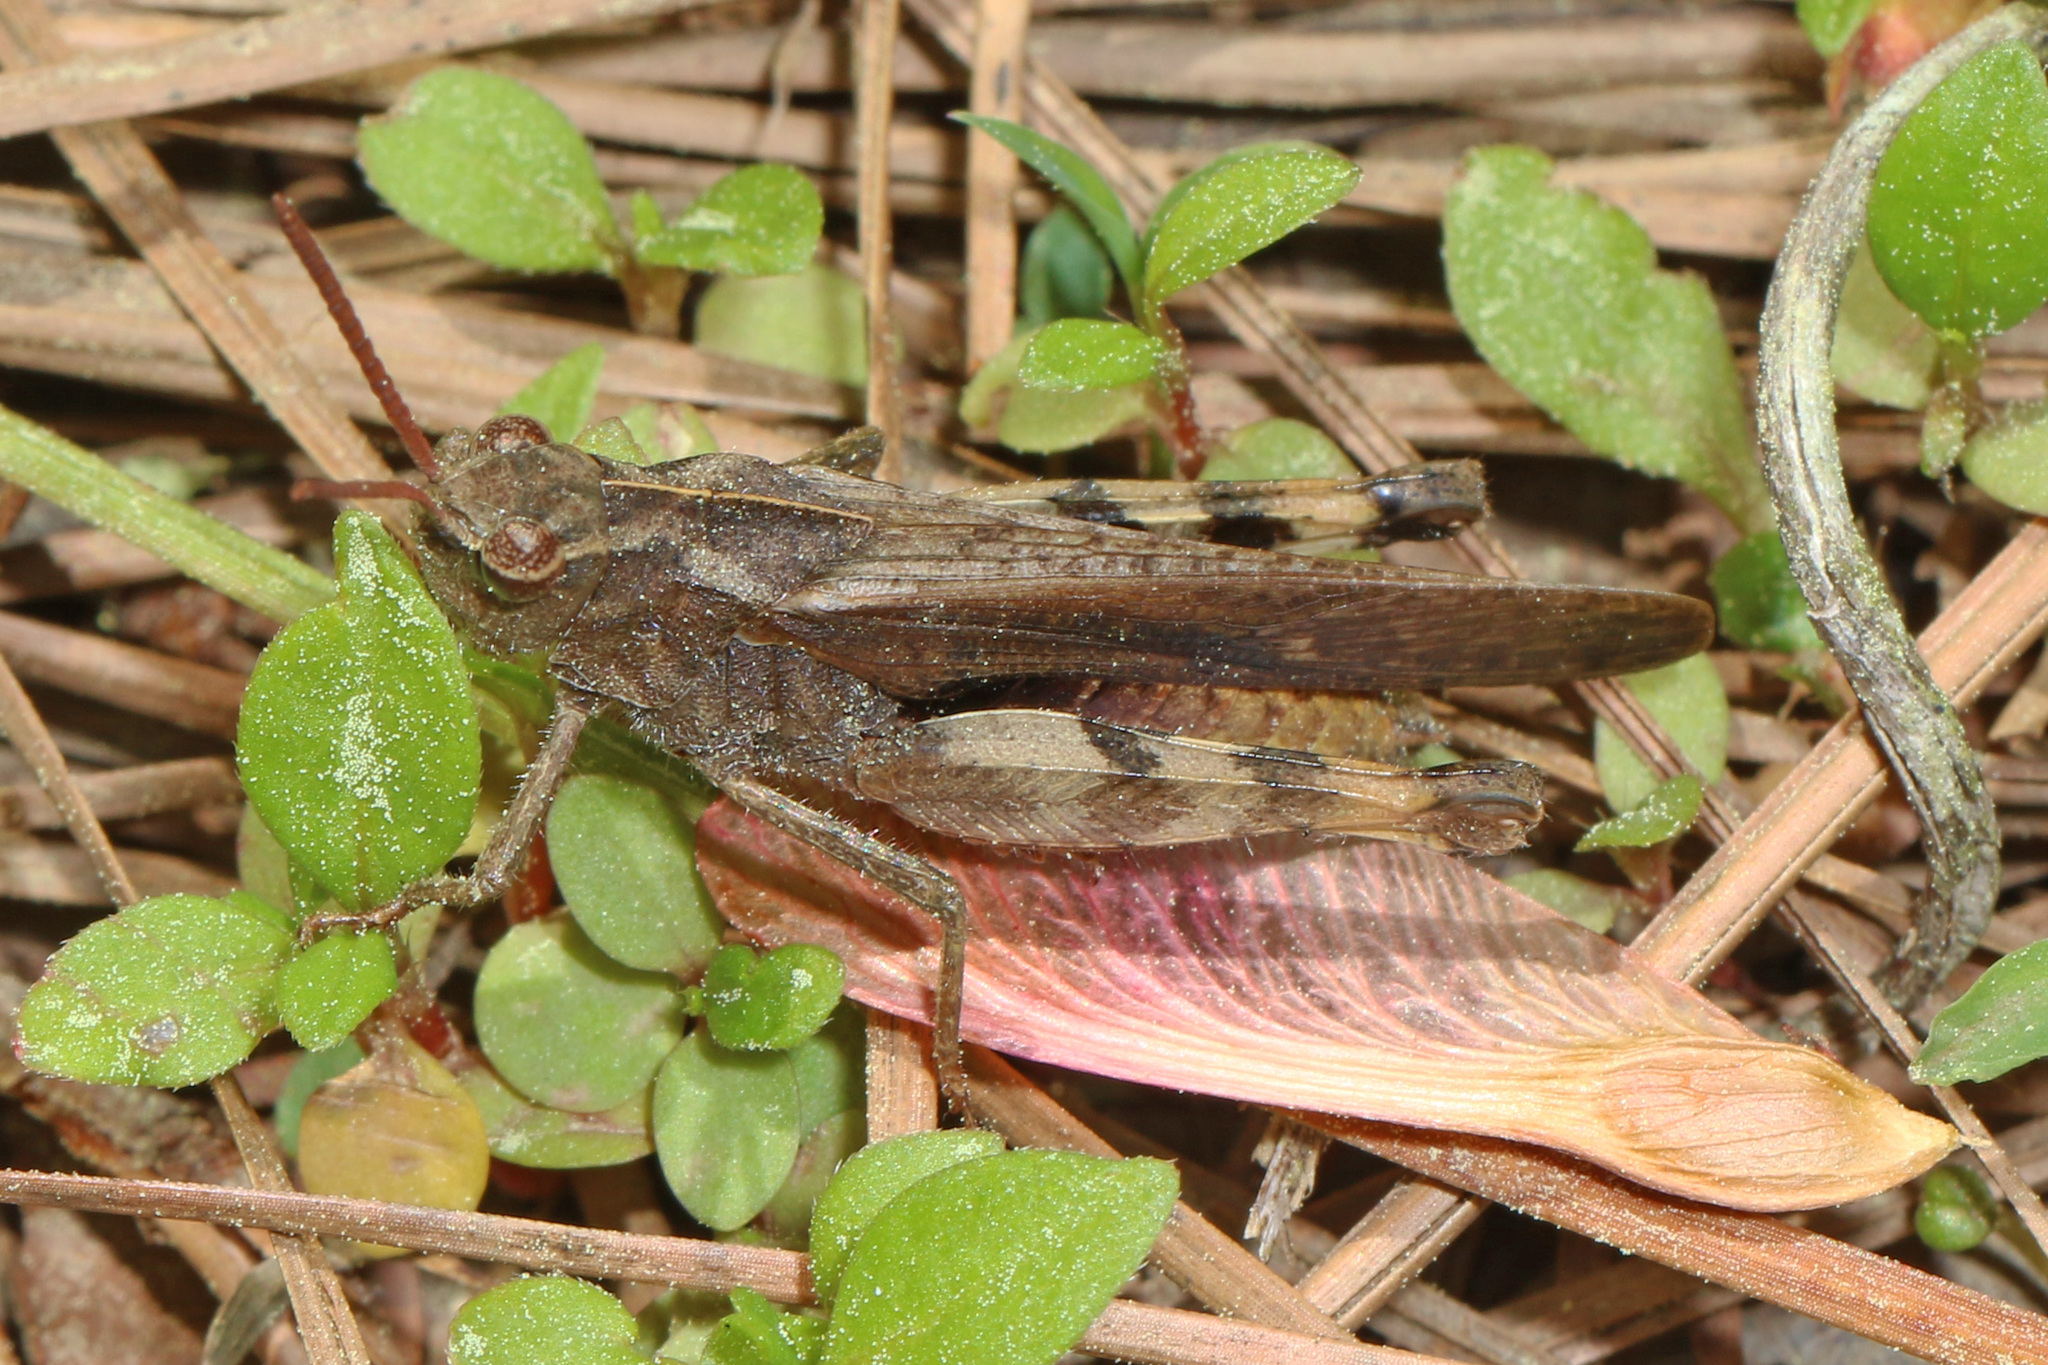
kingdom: Animalia
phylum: Arthropoda
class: Insecta
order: Orthoptera
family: Acrididae
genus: Chortophaga
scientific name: Chortophaga viridifasciata
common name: Green-striped grasshopper
